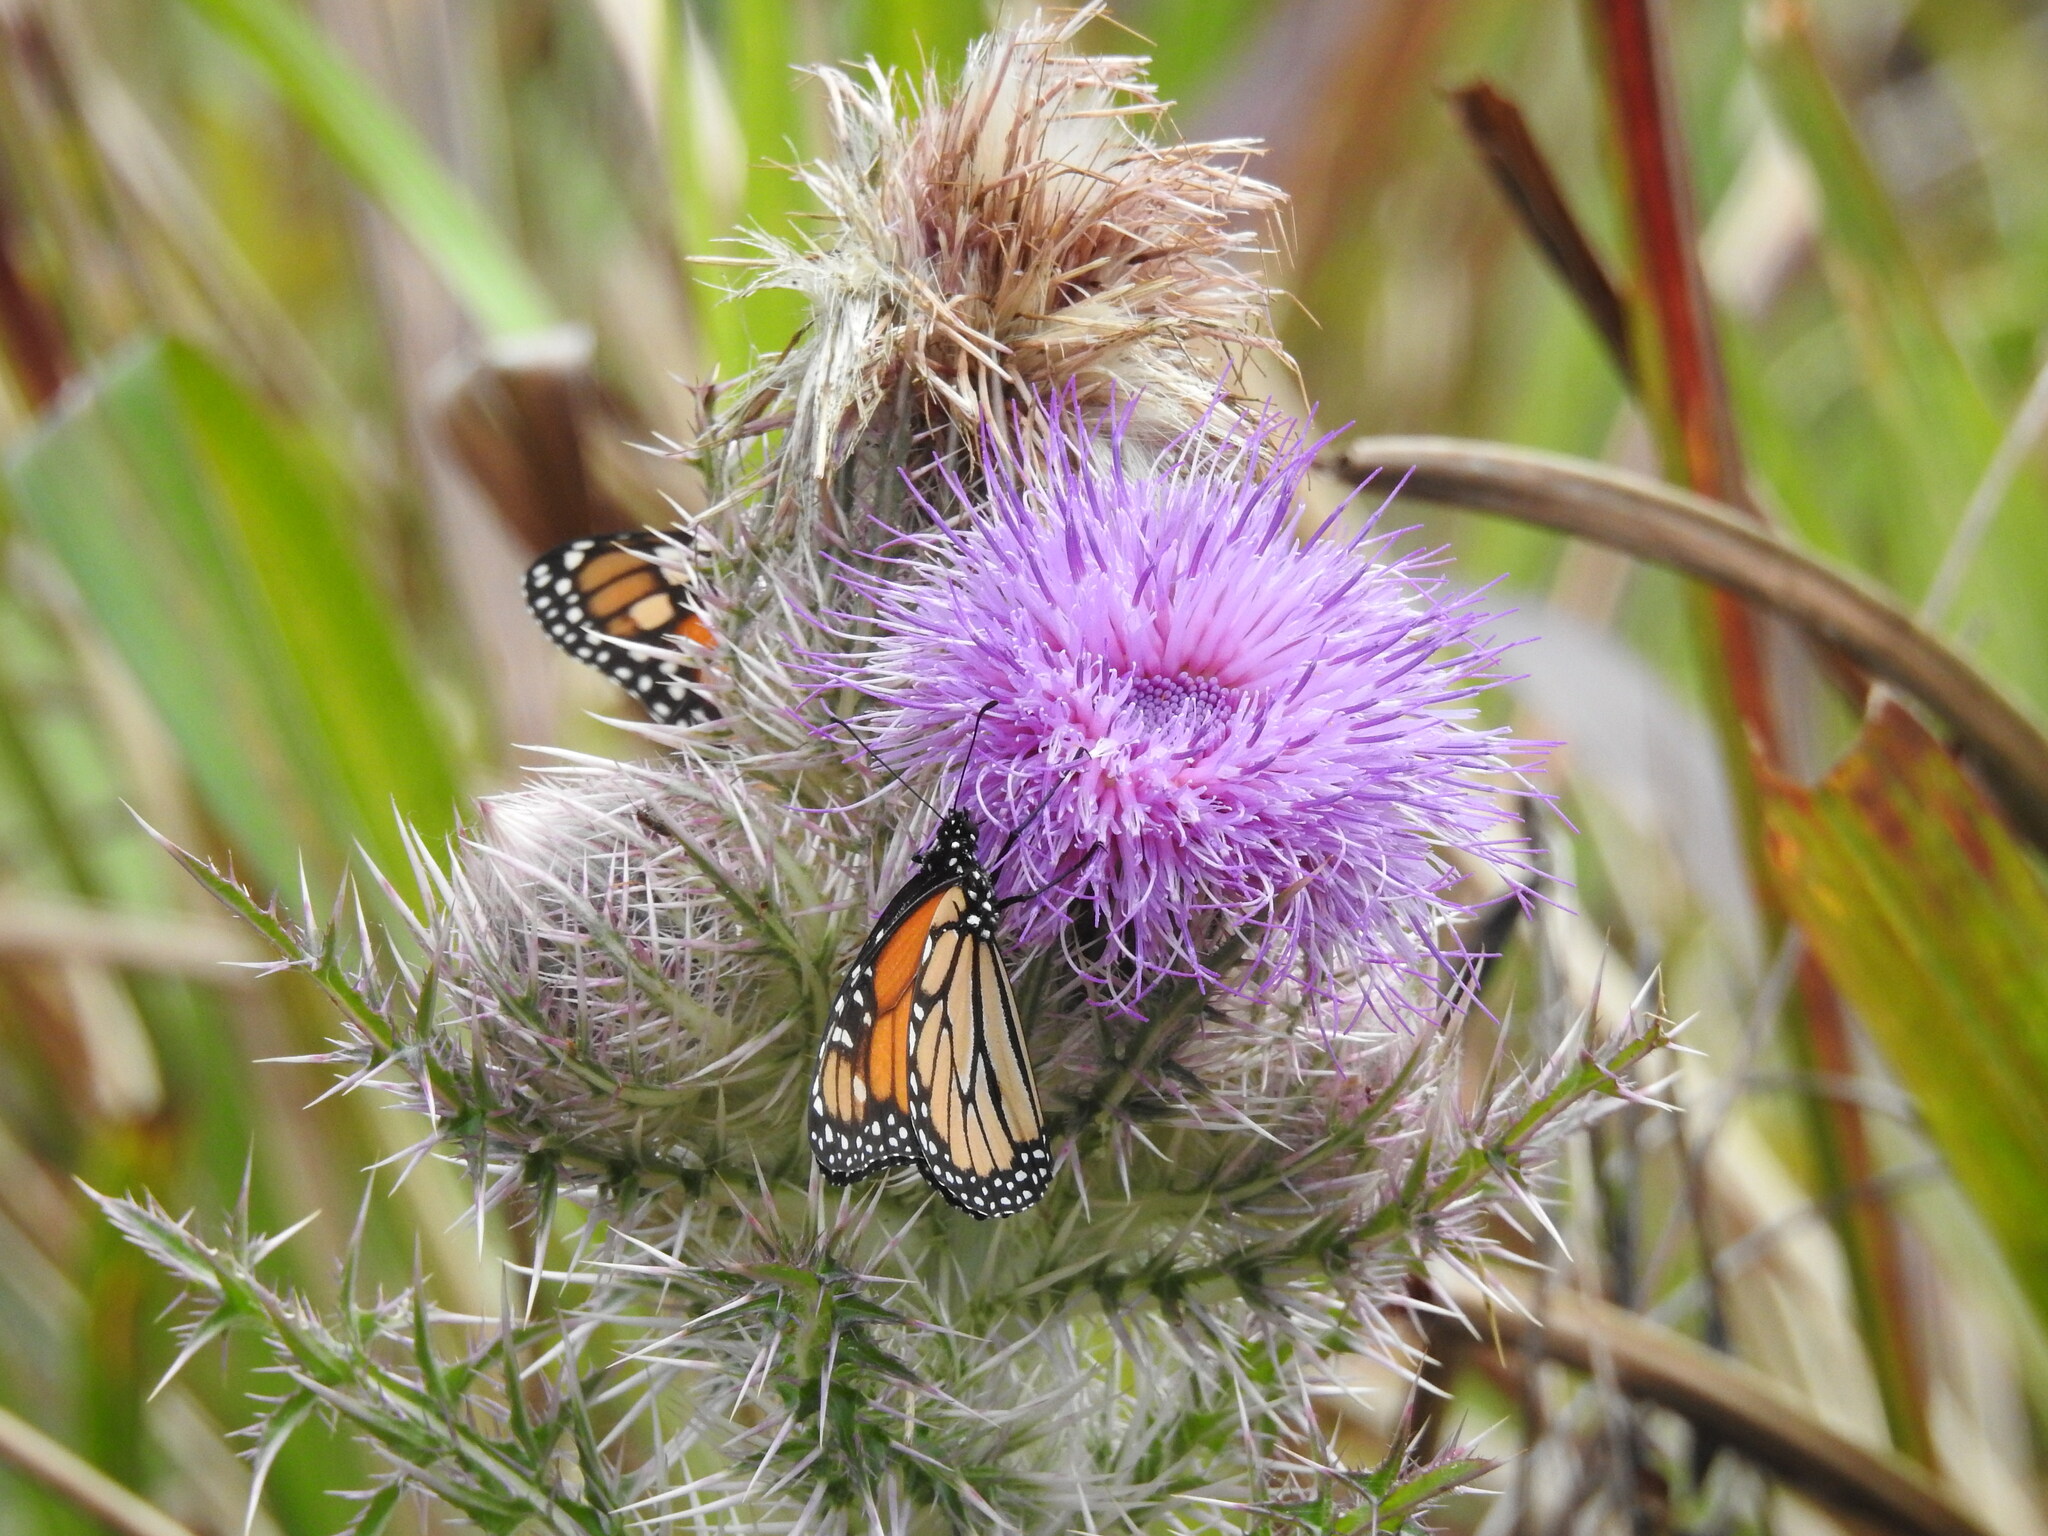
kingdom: Animalia
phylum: Arthropoda
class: Insecta
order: Lepidoptera
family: Nymphalidae
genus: Danaus
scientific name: Danaus plexippus
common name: Monarch
